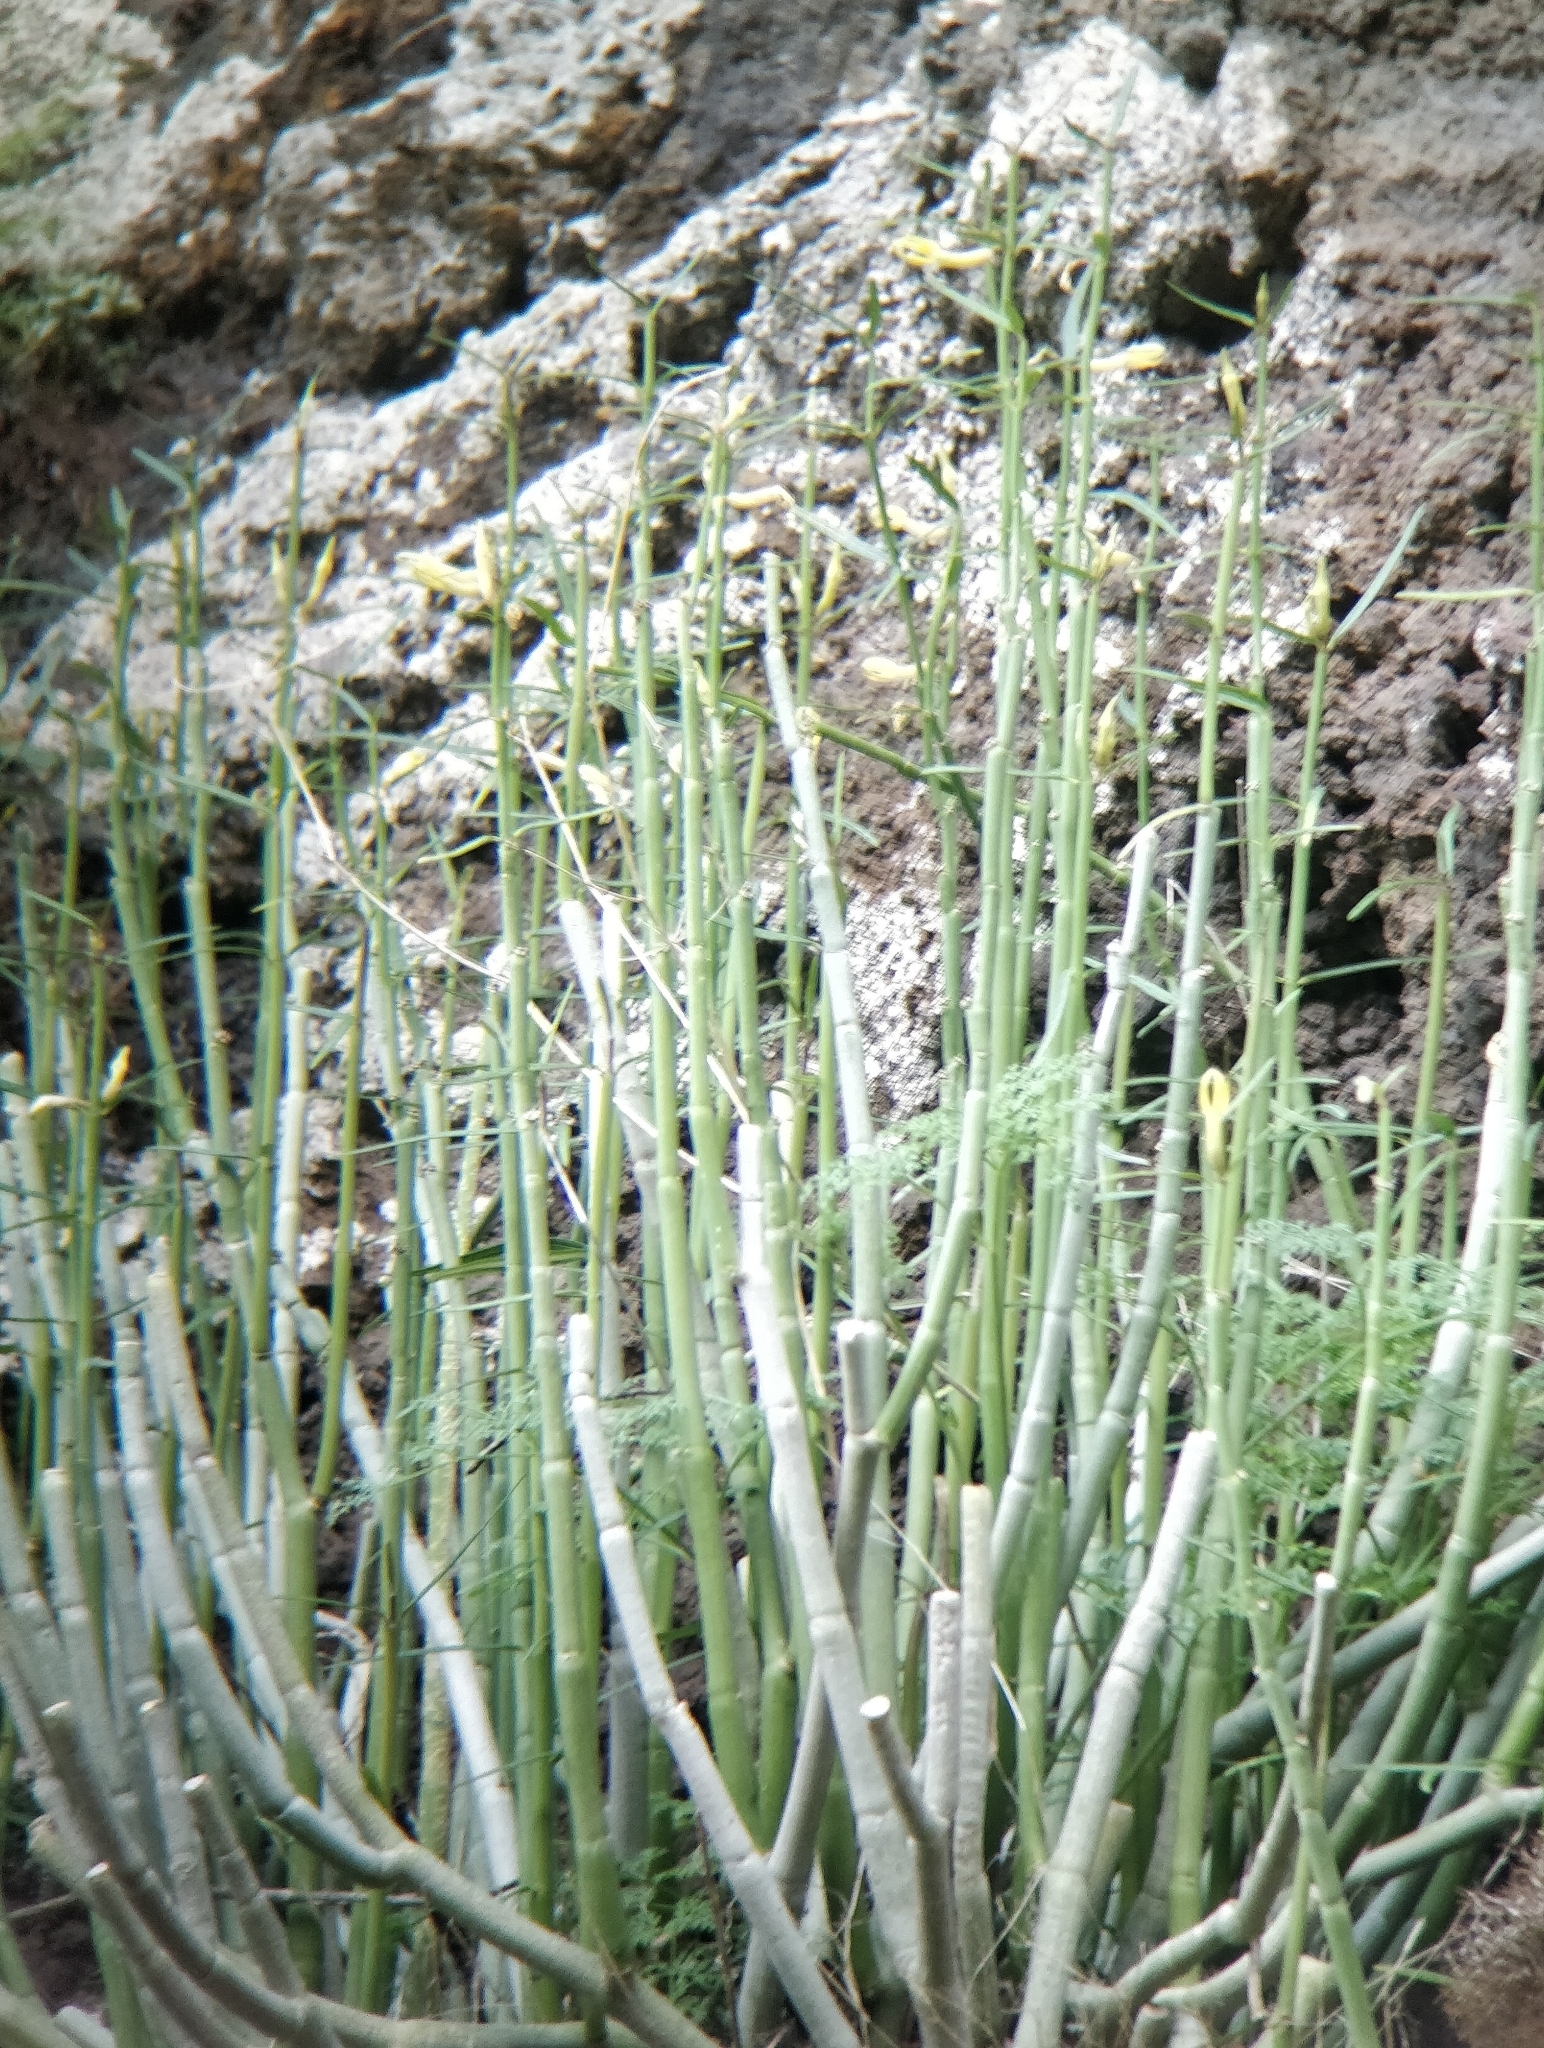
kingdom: Plantae
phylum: Tracheophyta
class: Magnoliopsida
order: Gentianales
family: Apocynaceae
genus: Ceropegia
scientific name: Ceropegia dichotoma
